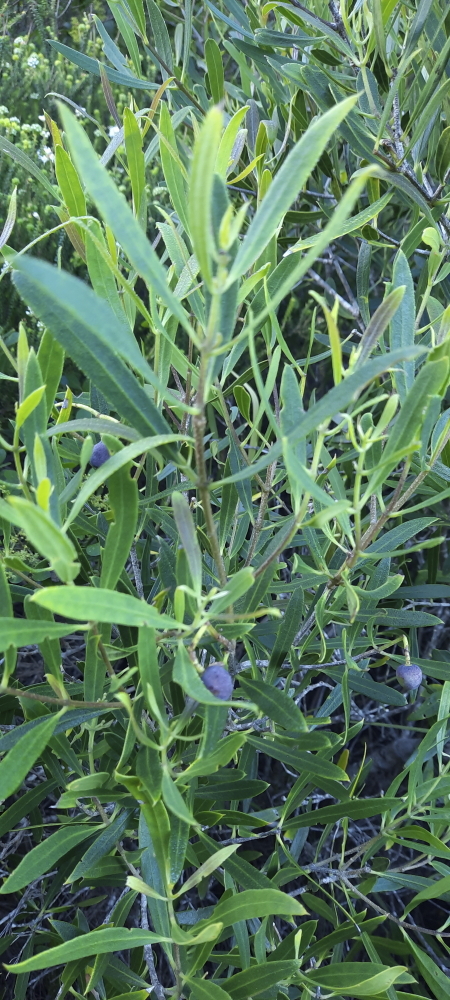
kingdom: Plantae
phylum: Tracheophyta
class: Magnoliopsida
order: Lamiales
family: Oleaceae
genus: Olea
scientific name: Olea exasperata
